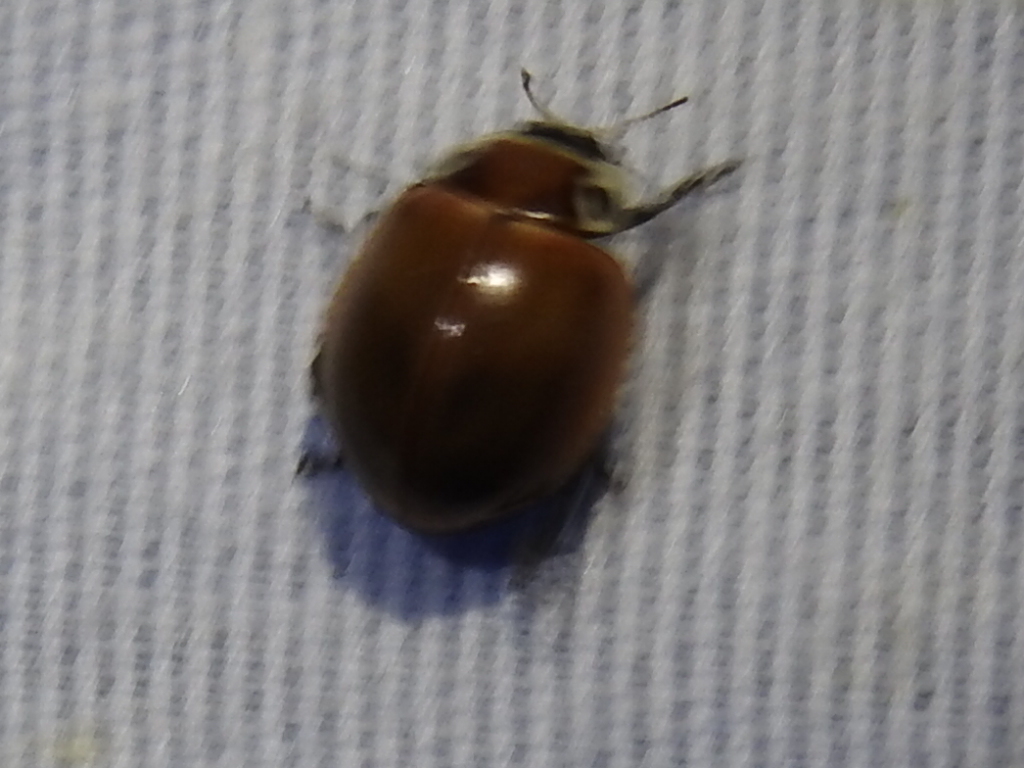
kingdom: Animalia
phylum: Arthropoda
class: Insecta
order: Coleoptera
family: Coccinellidae
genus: Myzia
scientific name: Myzia pullata
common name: Streaked lady beetle
